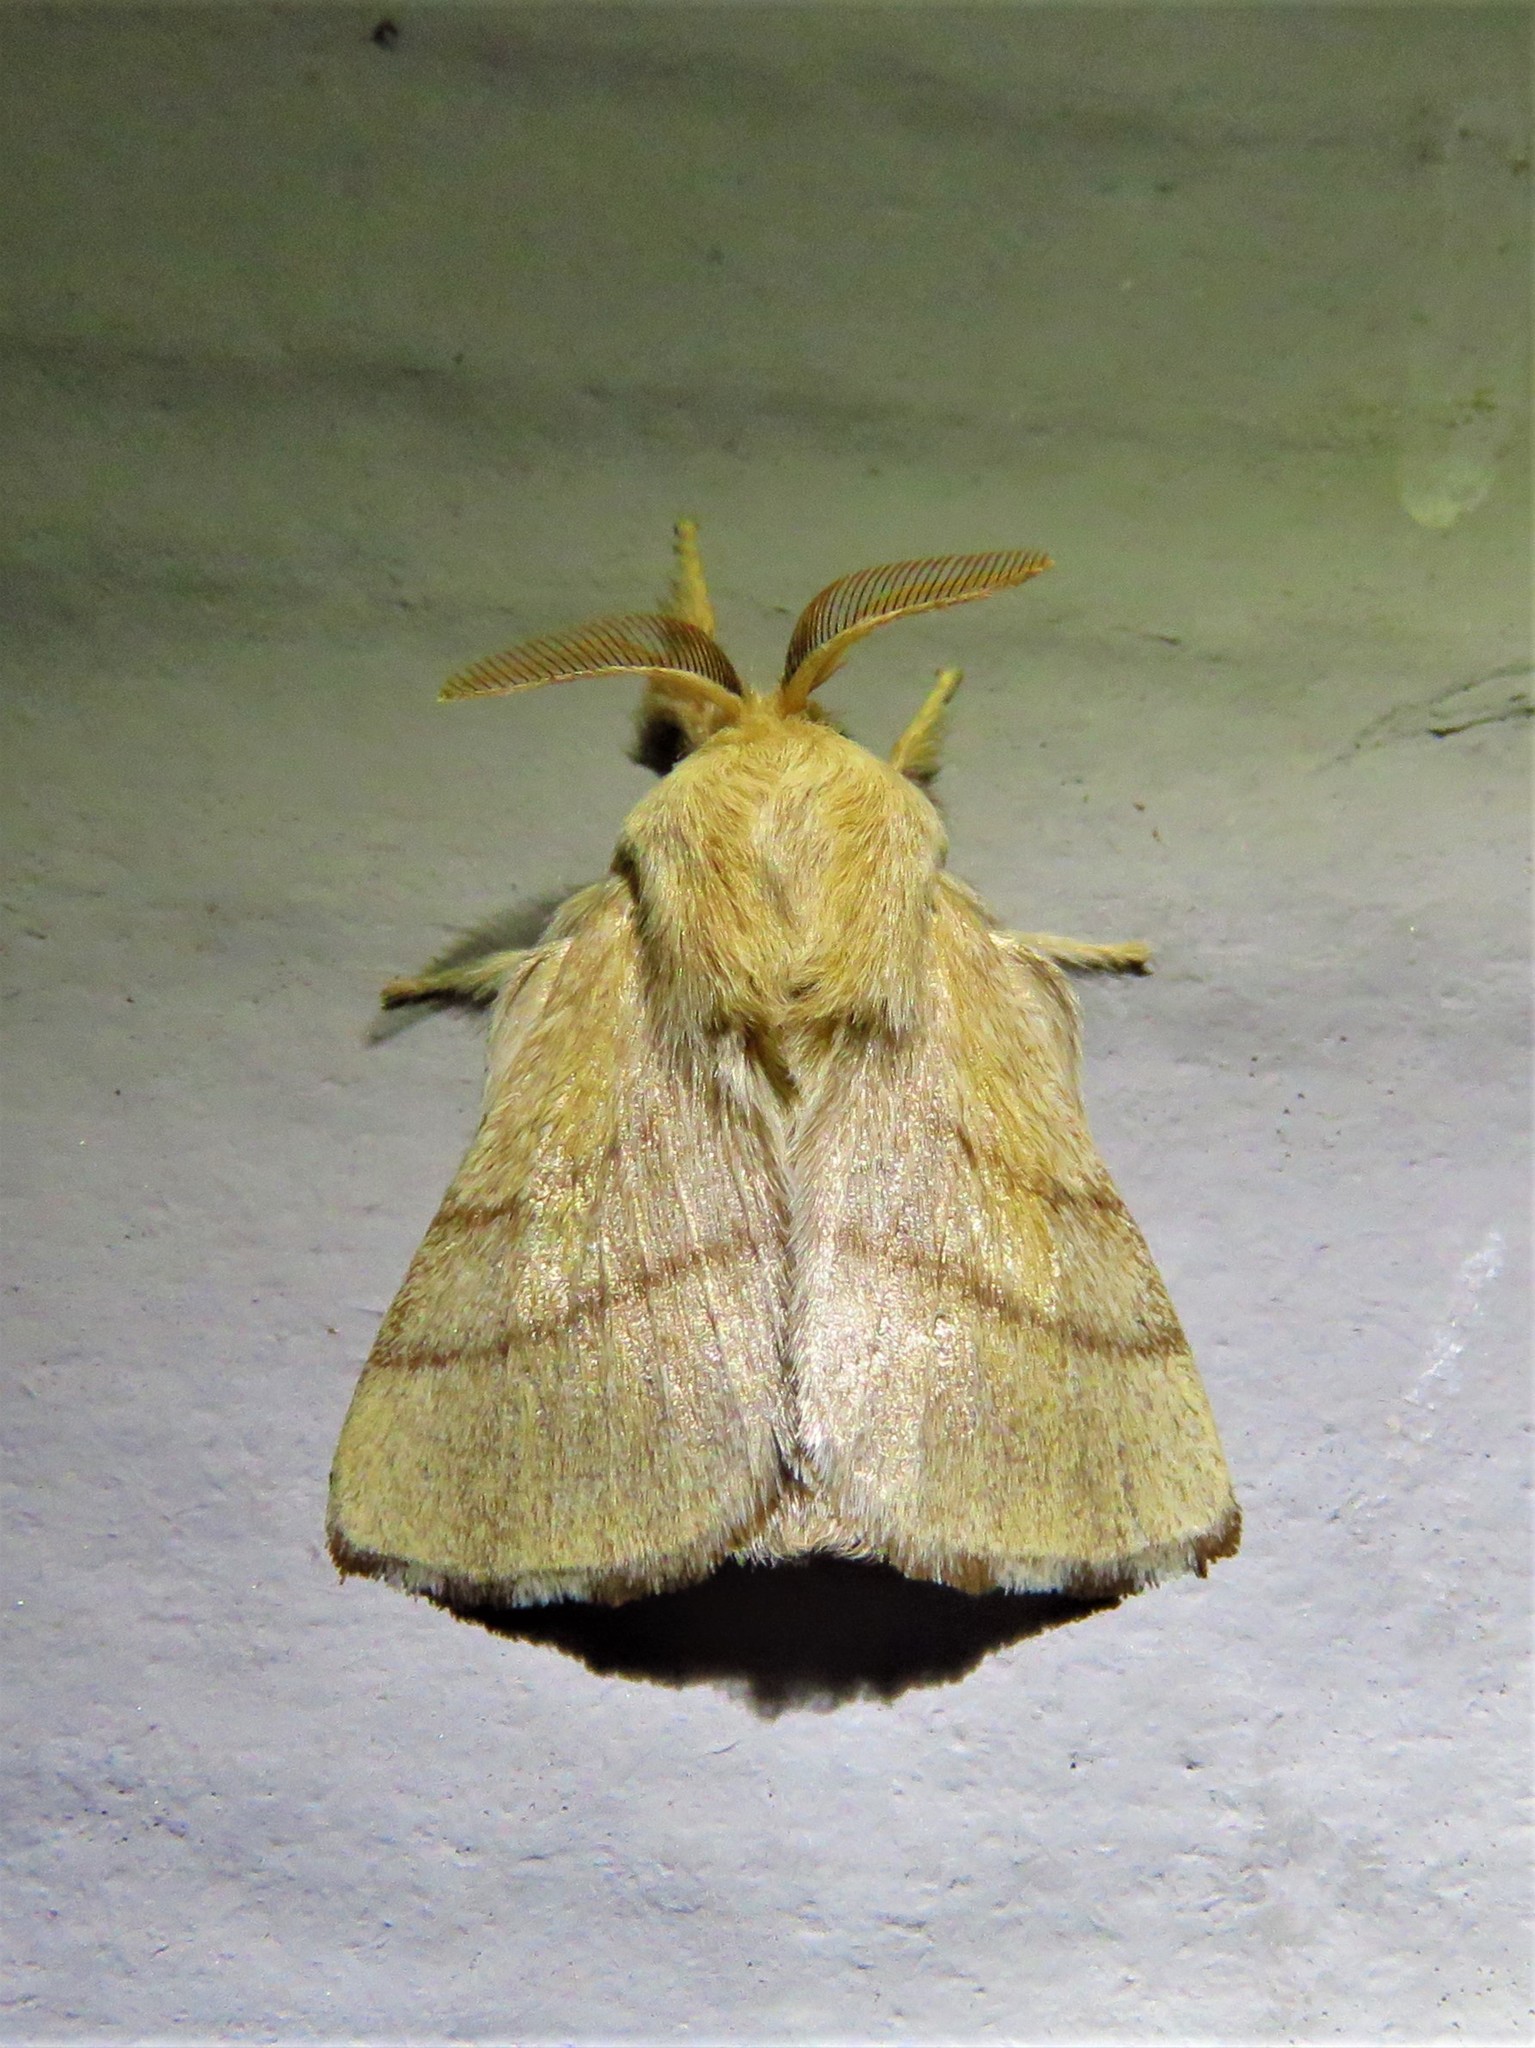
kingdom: Animalia
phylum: Arthropoda
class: Insecta
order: Lepidoptera
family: Lasiocampidae
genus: Malacosoma
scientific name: Malacosoma disstria
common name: Forest tent caterpillar
